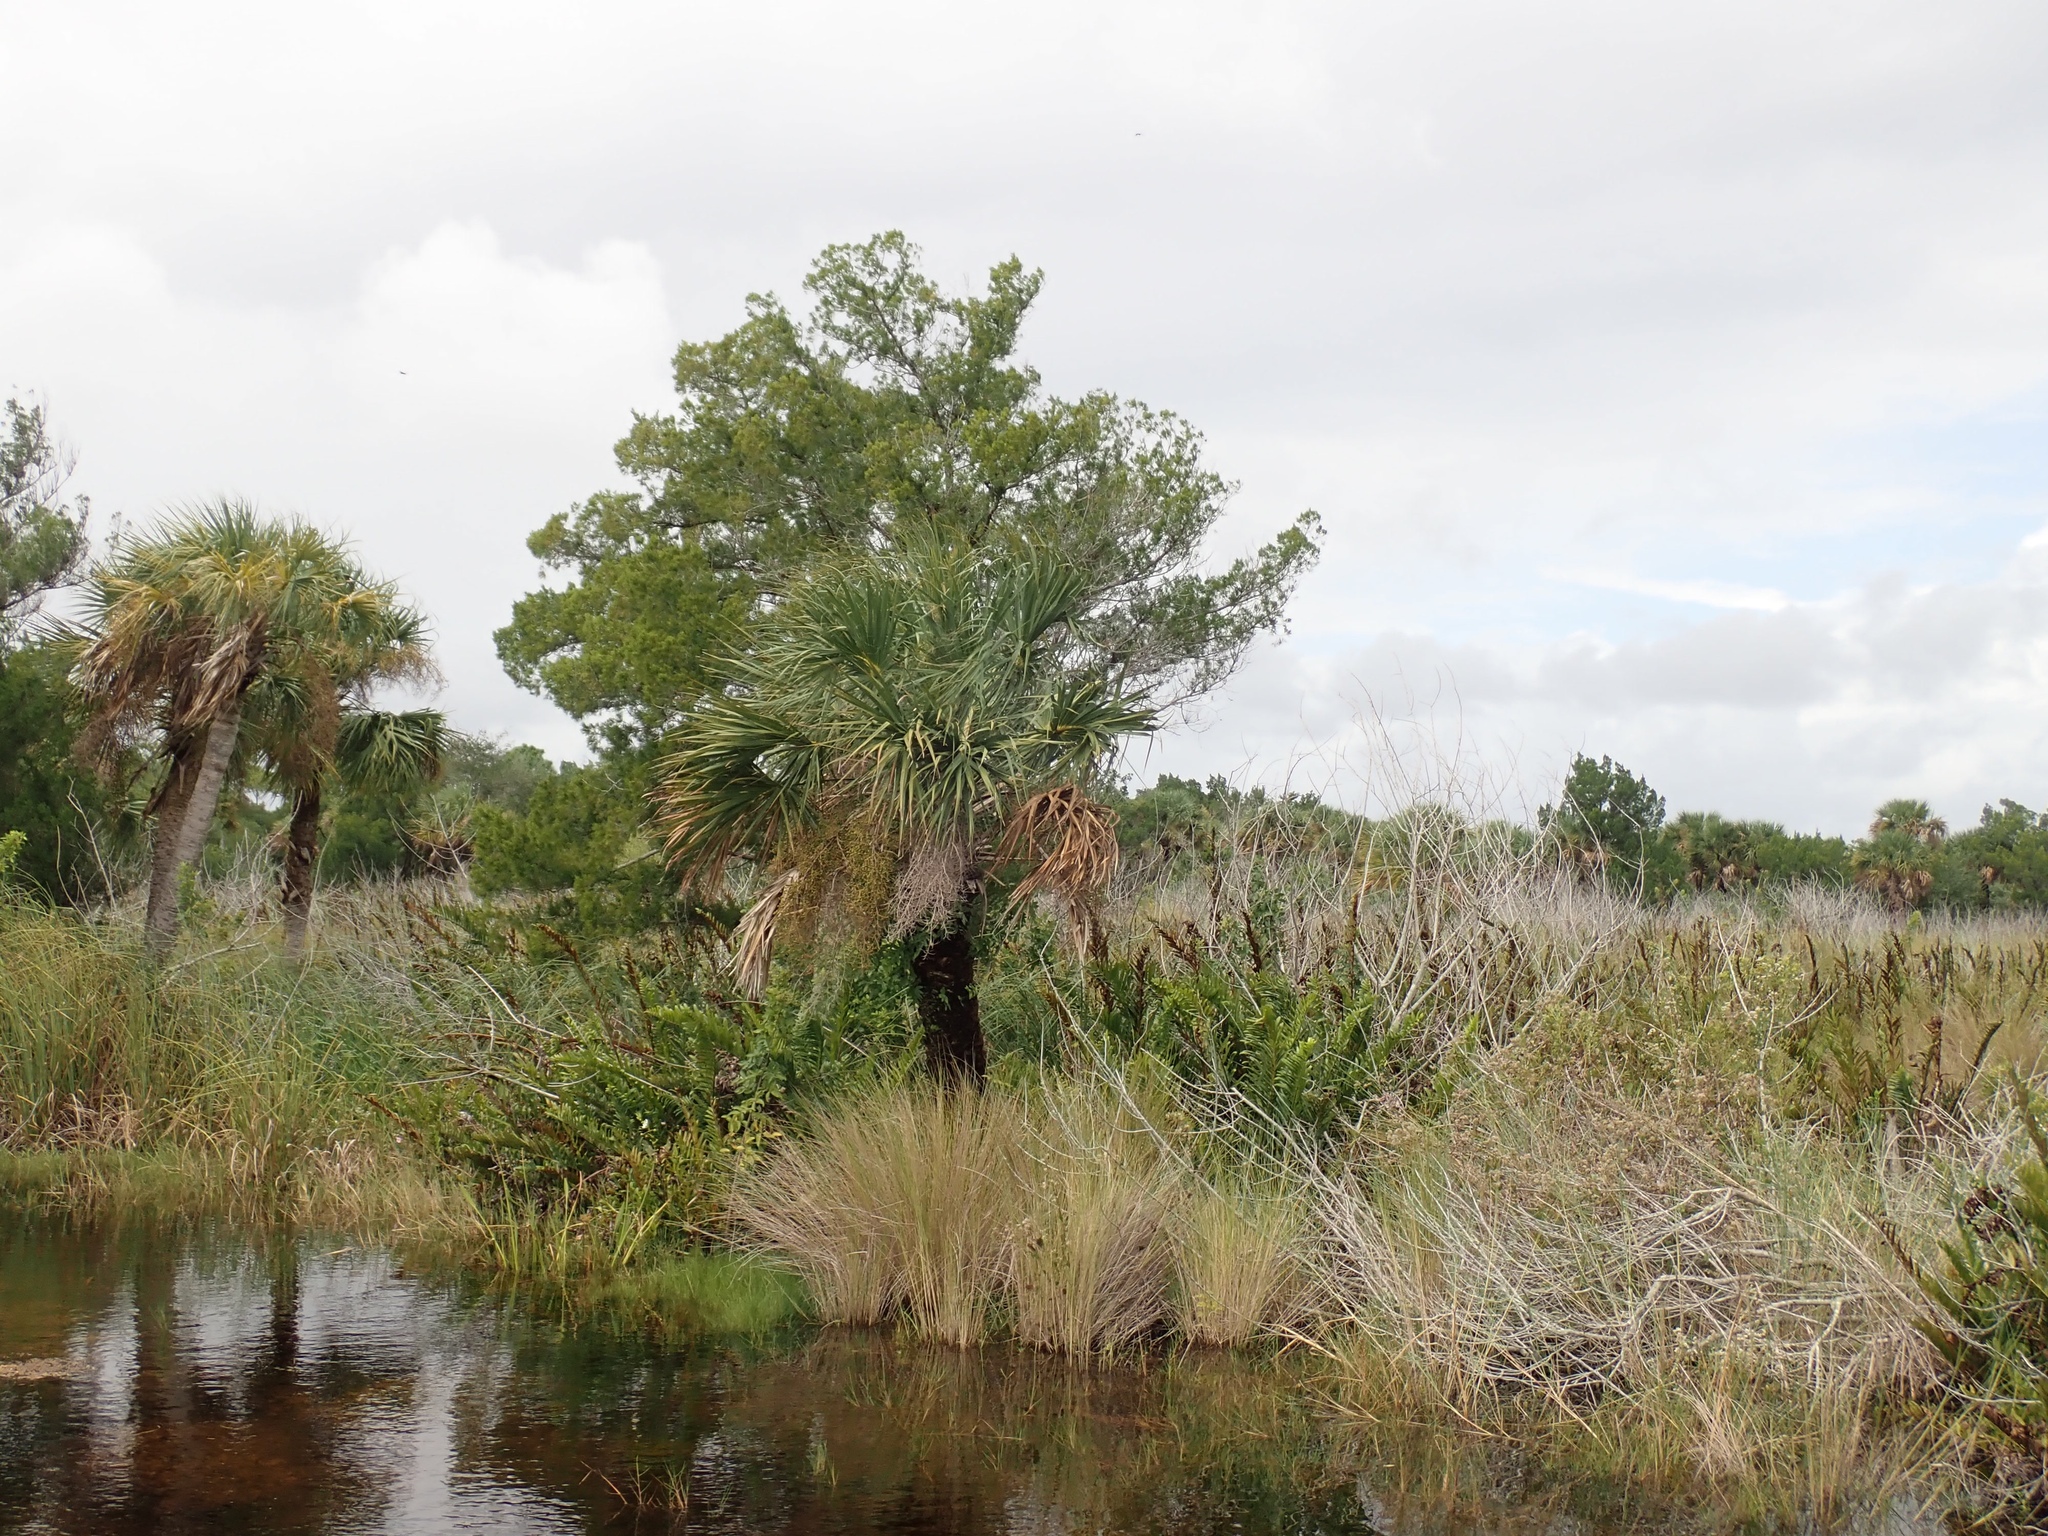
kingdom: Plantae
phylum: Tracheophyta
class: Liliopsida
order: Arecales
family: Arecaceae
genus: Sabal
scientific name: Sabal palmetto
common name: Blue palmetto
